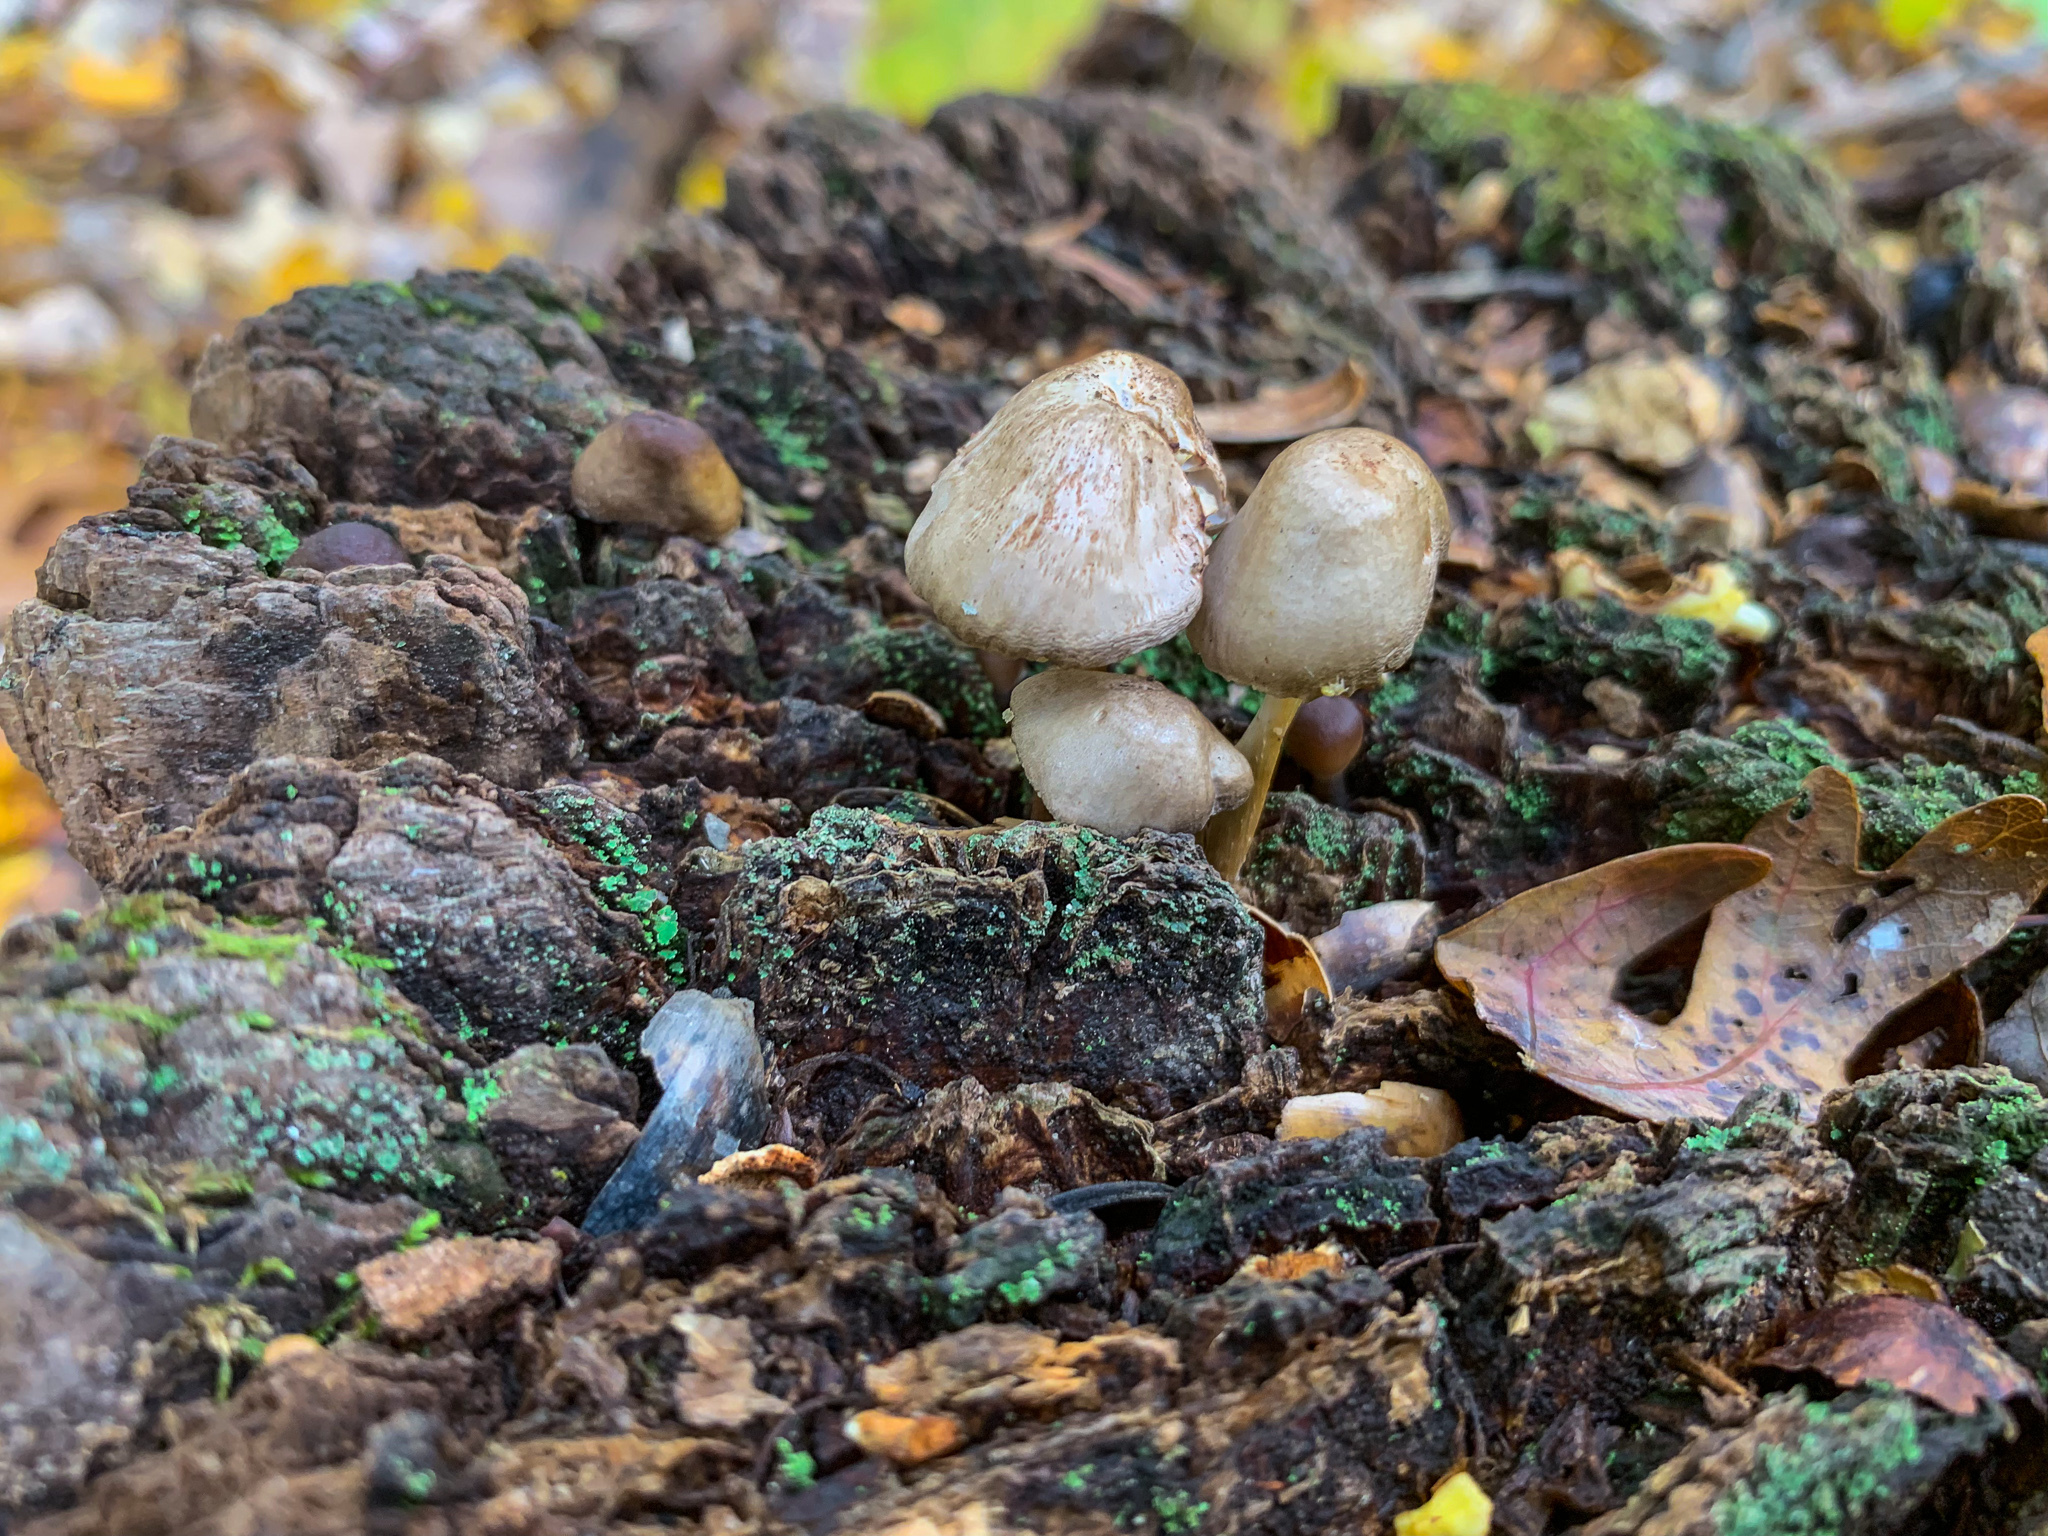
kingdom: Fungi
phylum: Basidiomycota
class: Agaricomycetes
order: Agaricales
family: Mycenaceae
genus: Mycena
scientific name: Mycena inclinata
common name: Clustered bonnet
